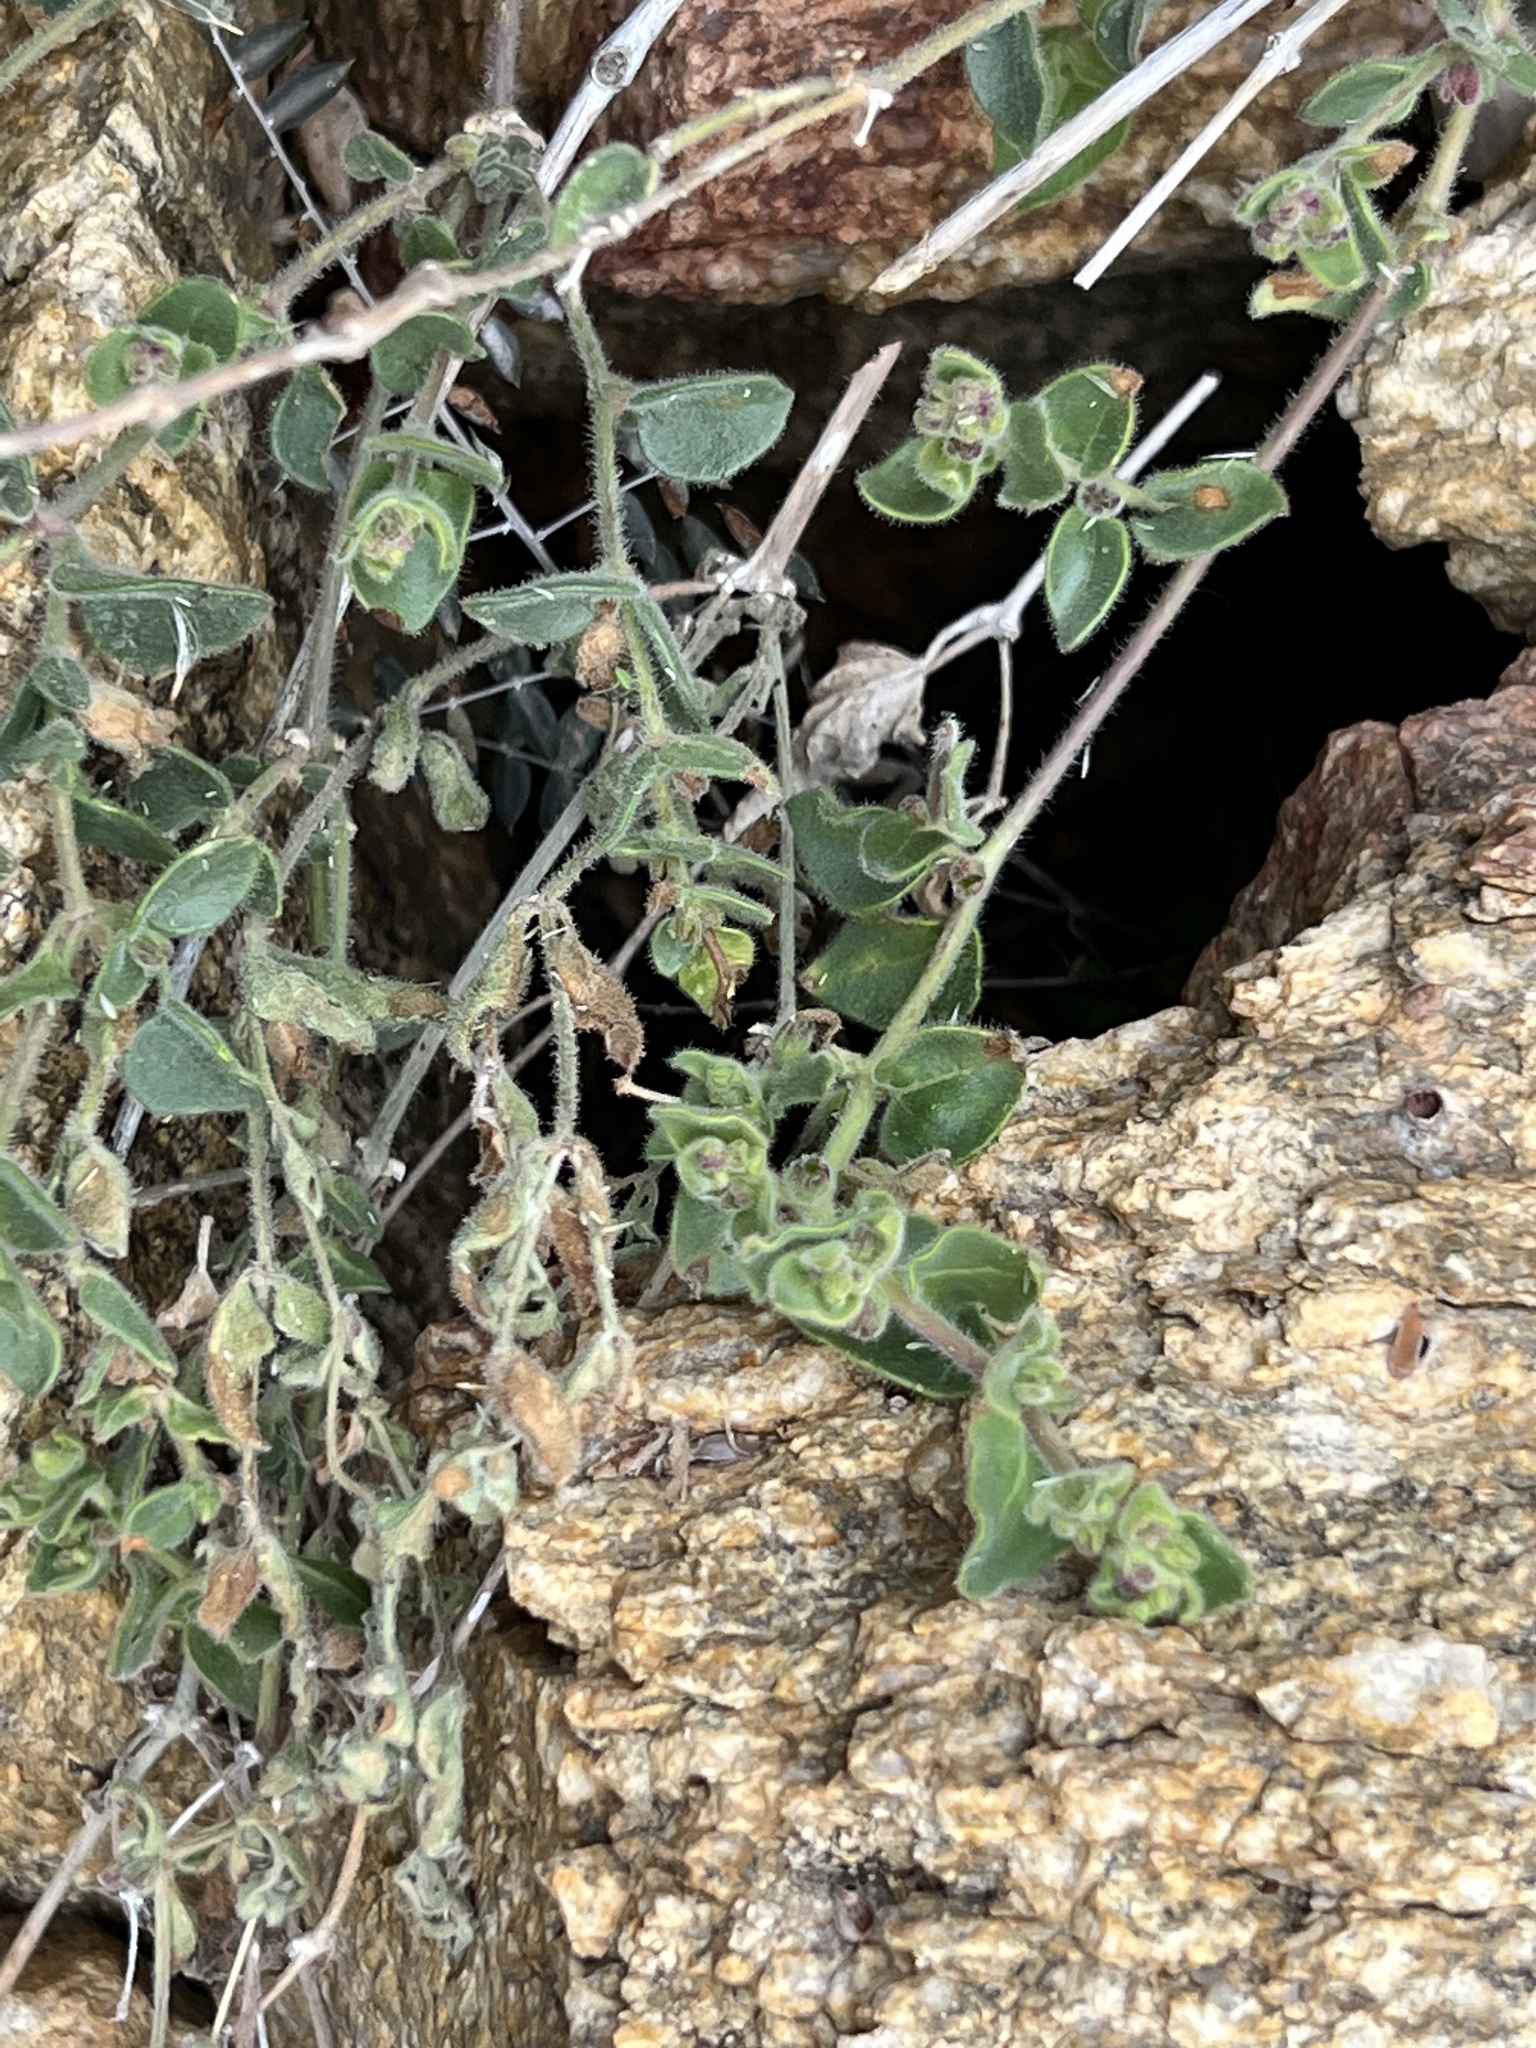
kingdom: Plantae
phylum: Tracheophyta
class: Magnoliopsida
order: Caryophyllales
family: Nyctaginaceae
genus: Mirabilis
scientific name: Mirabilis laevis
